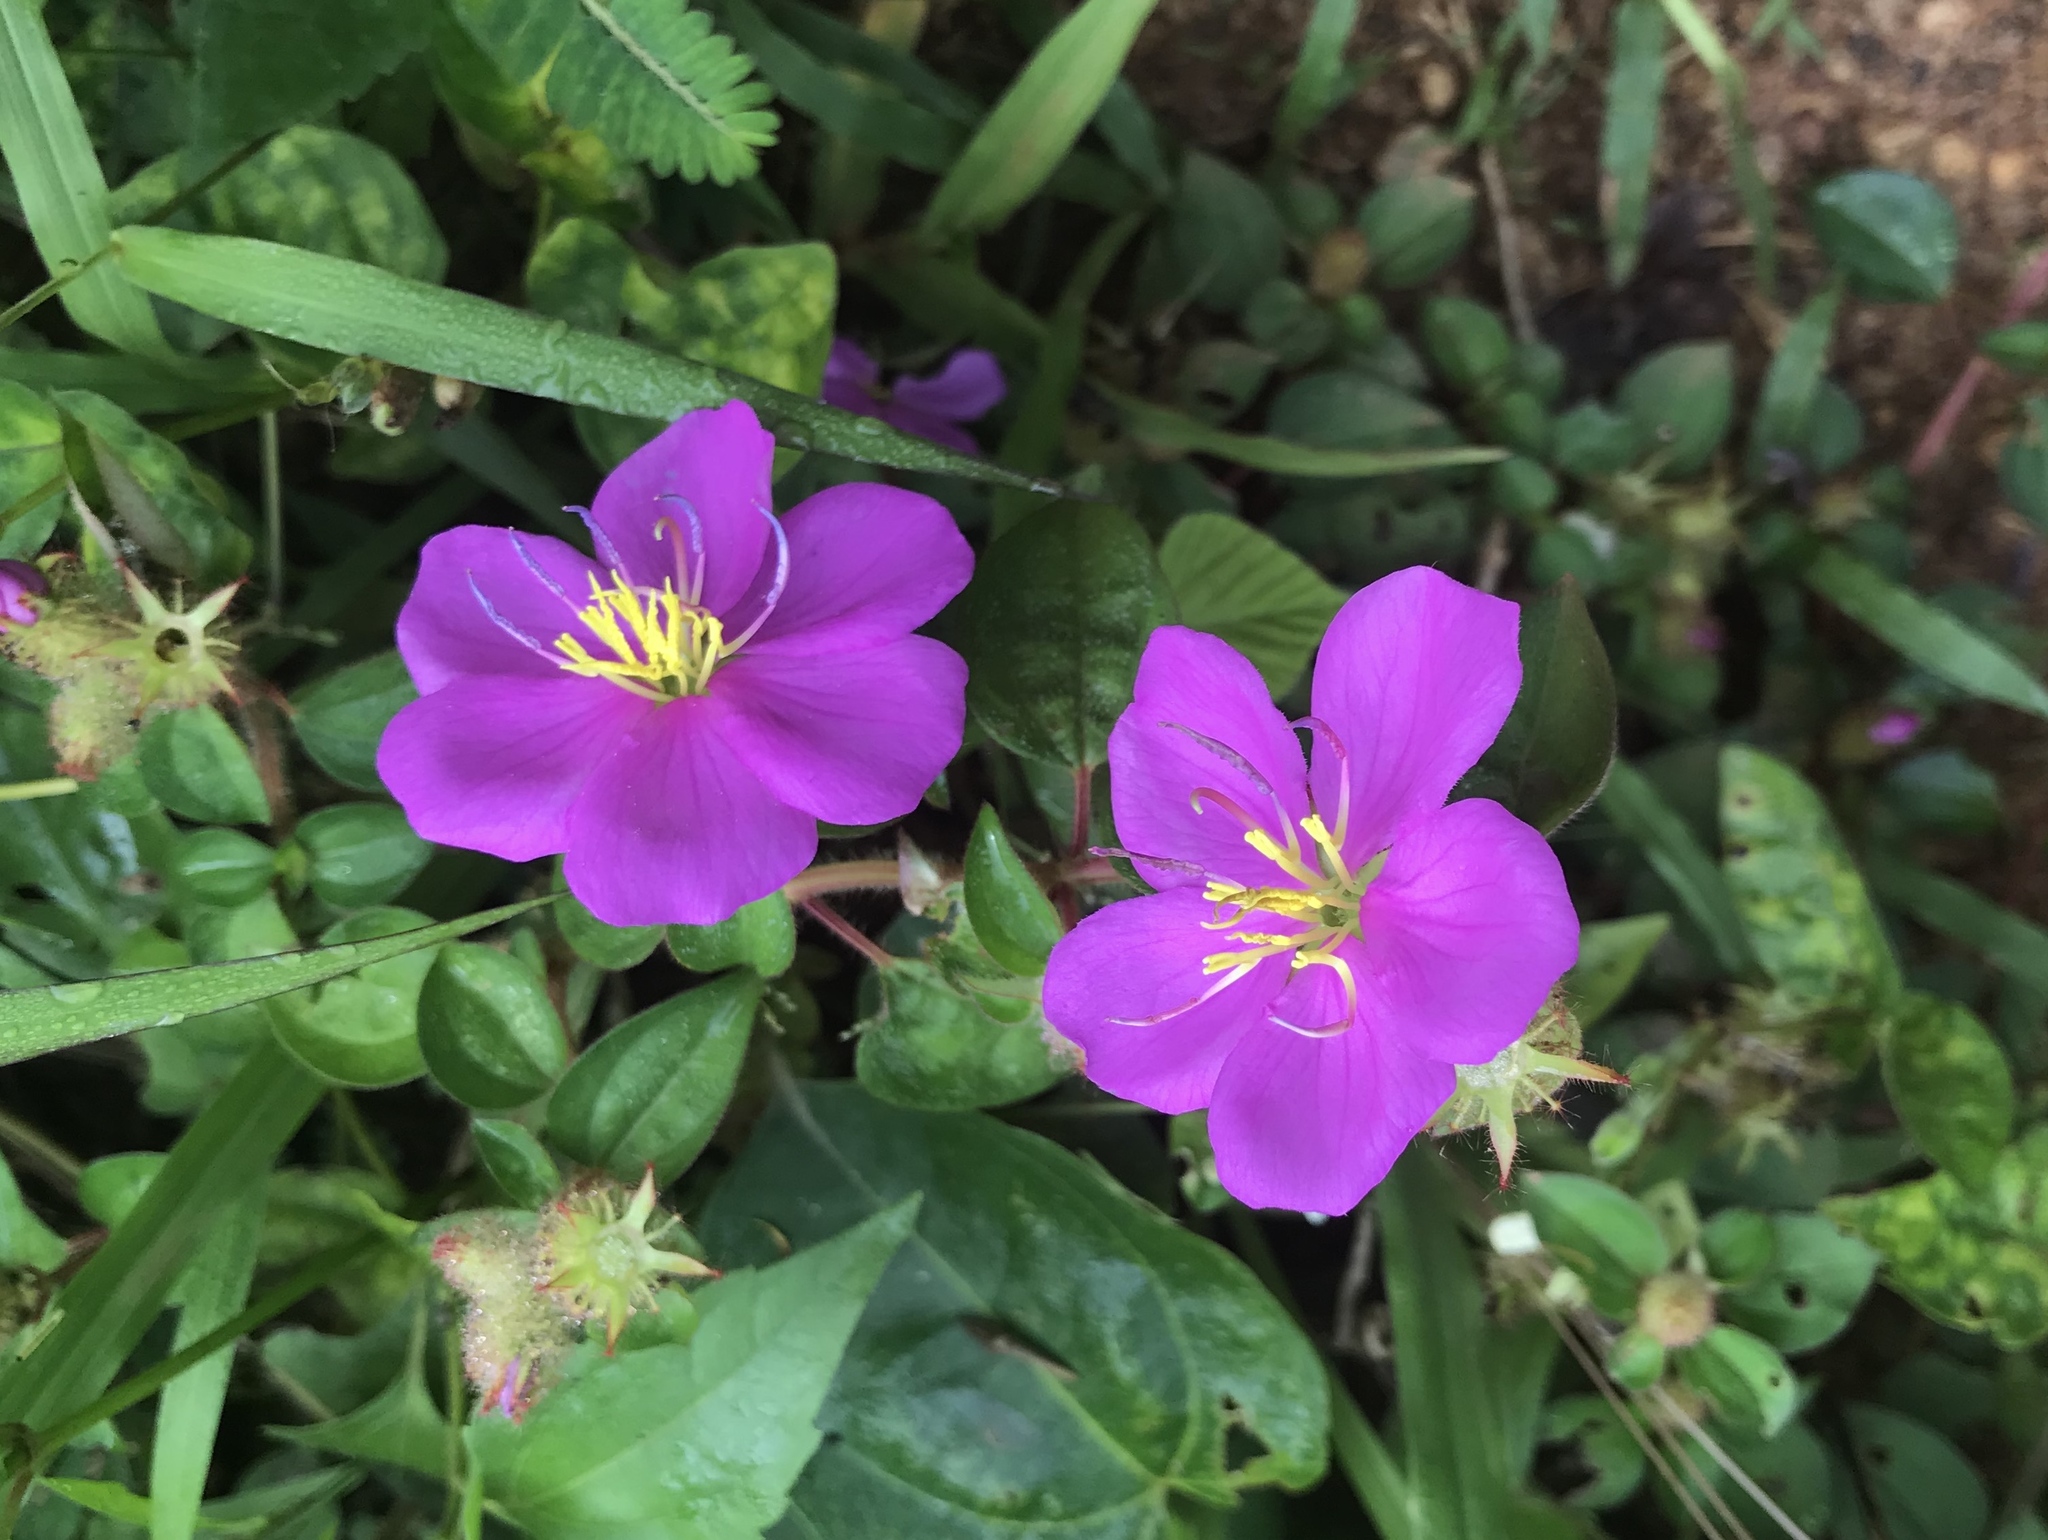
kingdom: Plantae
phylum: Tracheophyta
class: Magnoliopsida
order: Myrtales
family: Melastomataceae
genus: Heterotis
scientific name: Heterotis rotundifolia
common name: Pinklady
